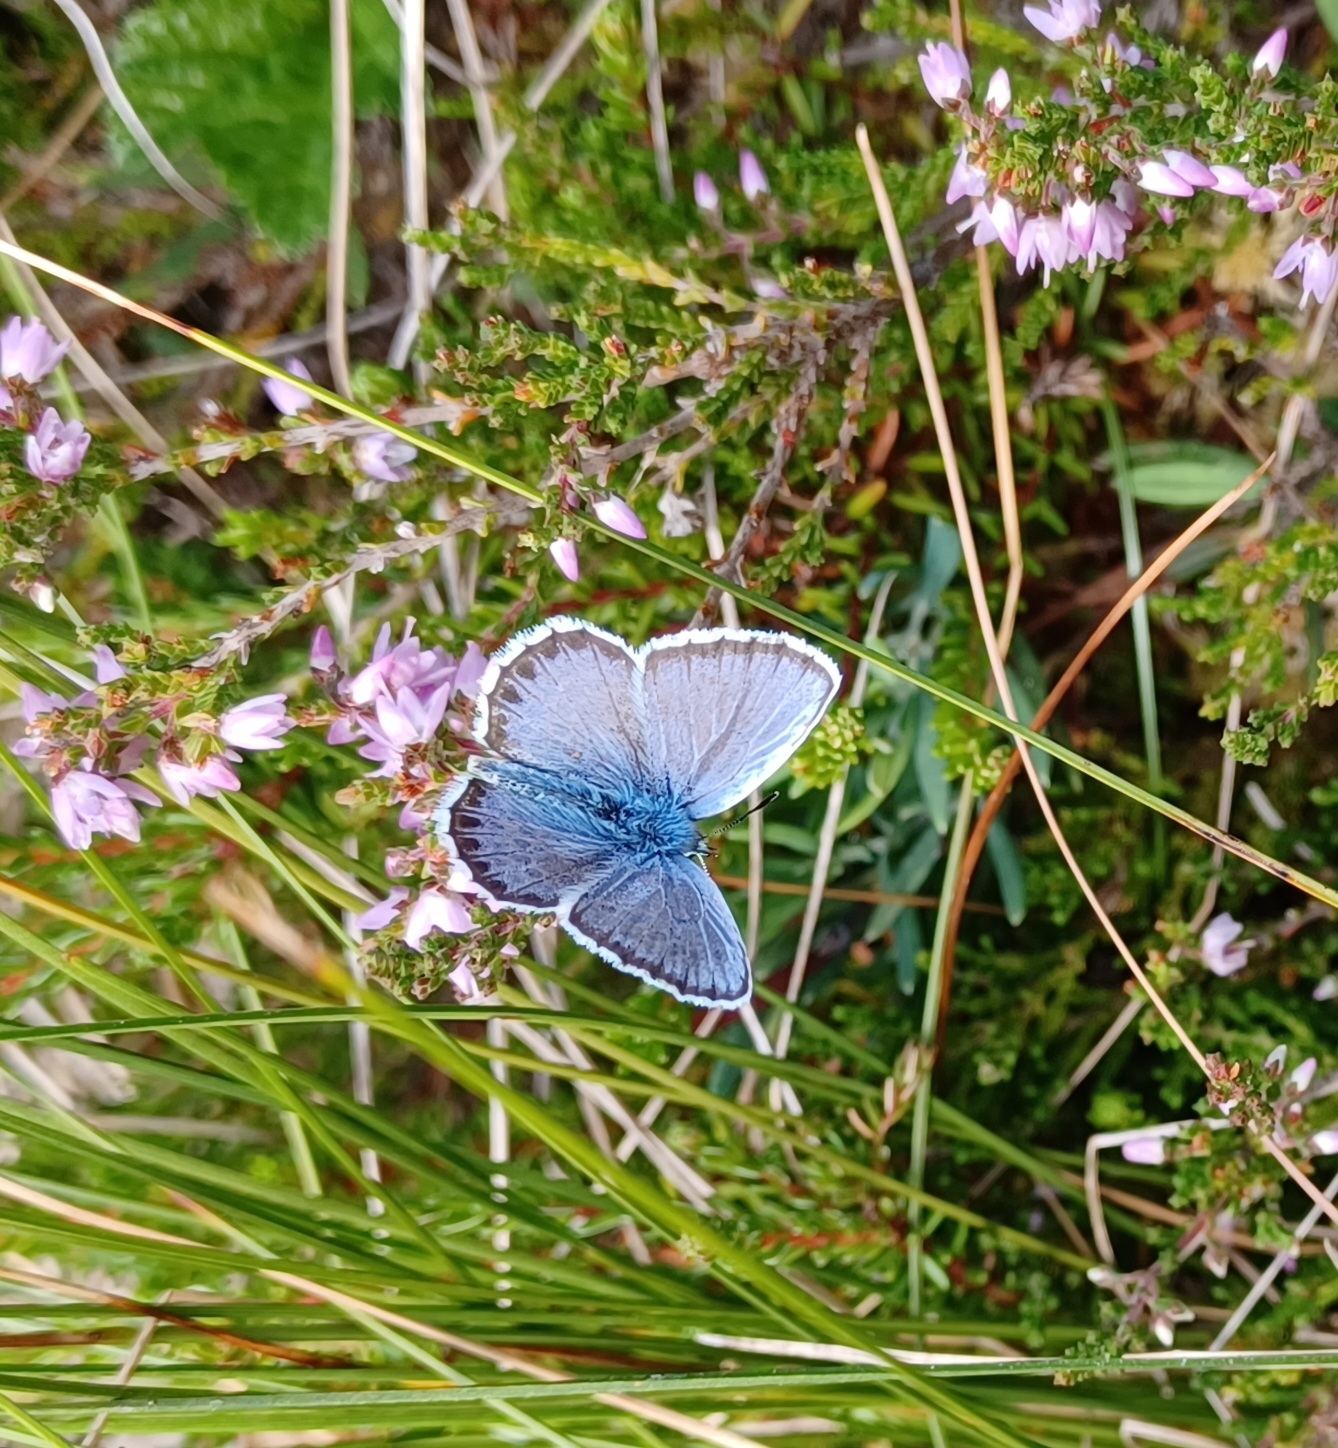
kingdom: Animalia
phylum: Arthropoda
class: Insecta
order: Lepidoptera
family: Lycaenidae
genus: Plebejus
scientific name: Plebejus argus
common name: Silver-studded blue
